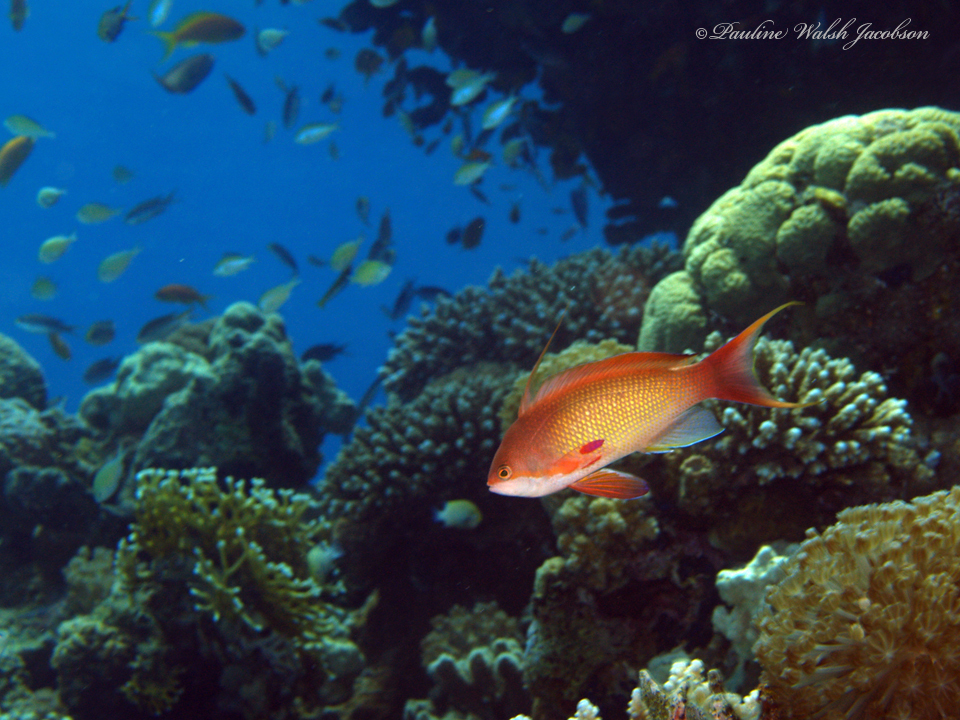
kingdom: Animalia
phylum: Chordata
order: Perciformes
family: Serranidae
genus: Pseudanthias
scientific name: Pseudanthias squamipinnis
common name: Scalefin anthias
